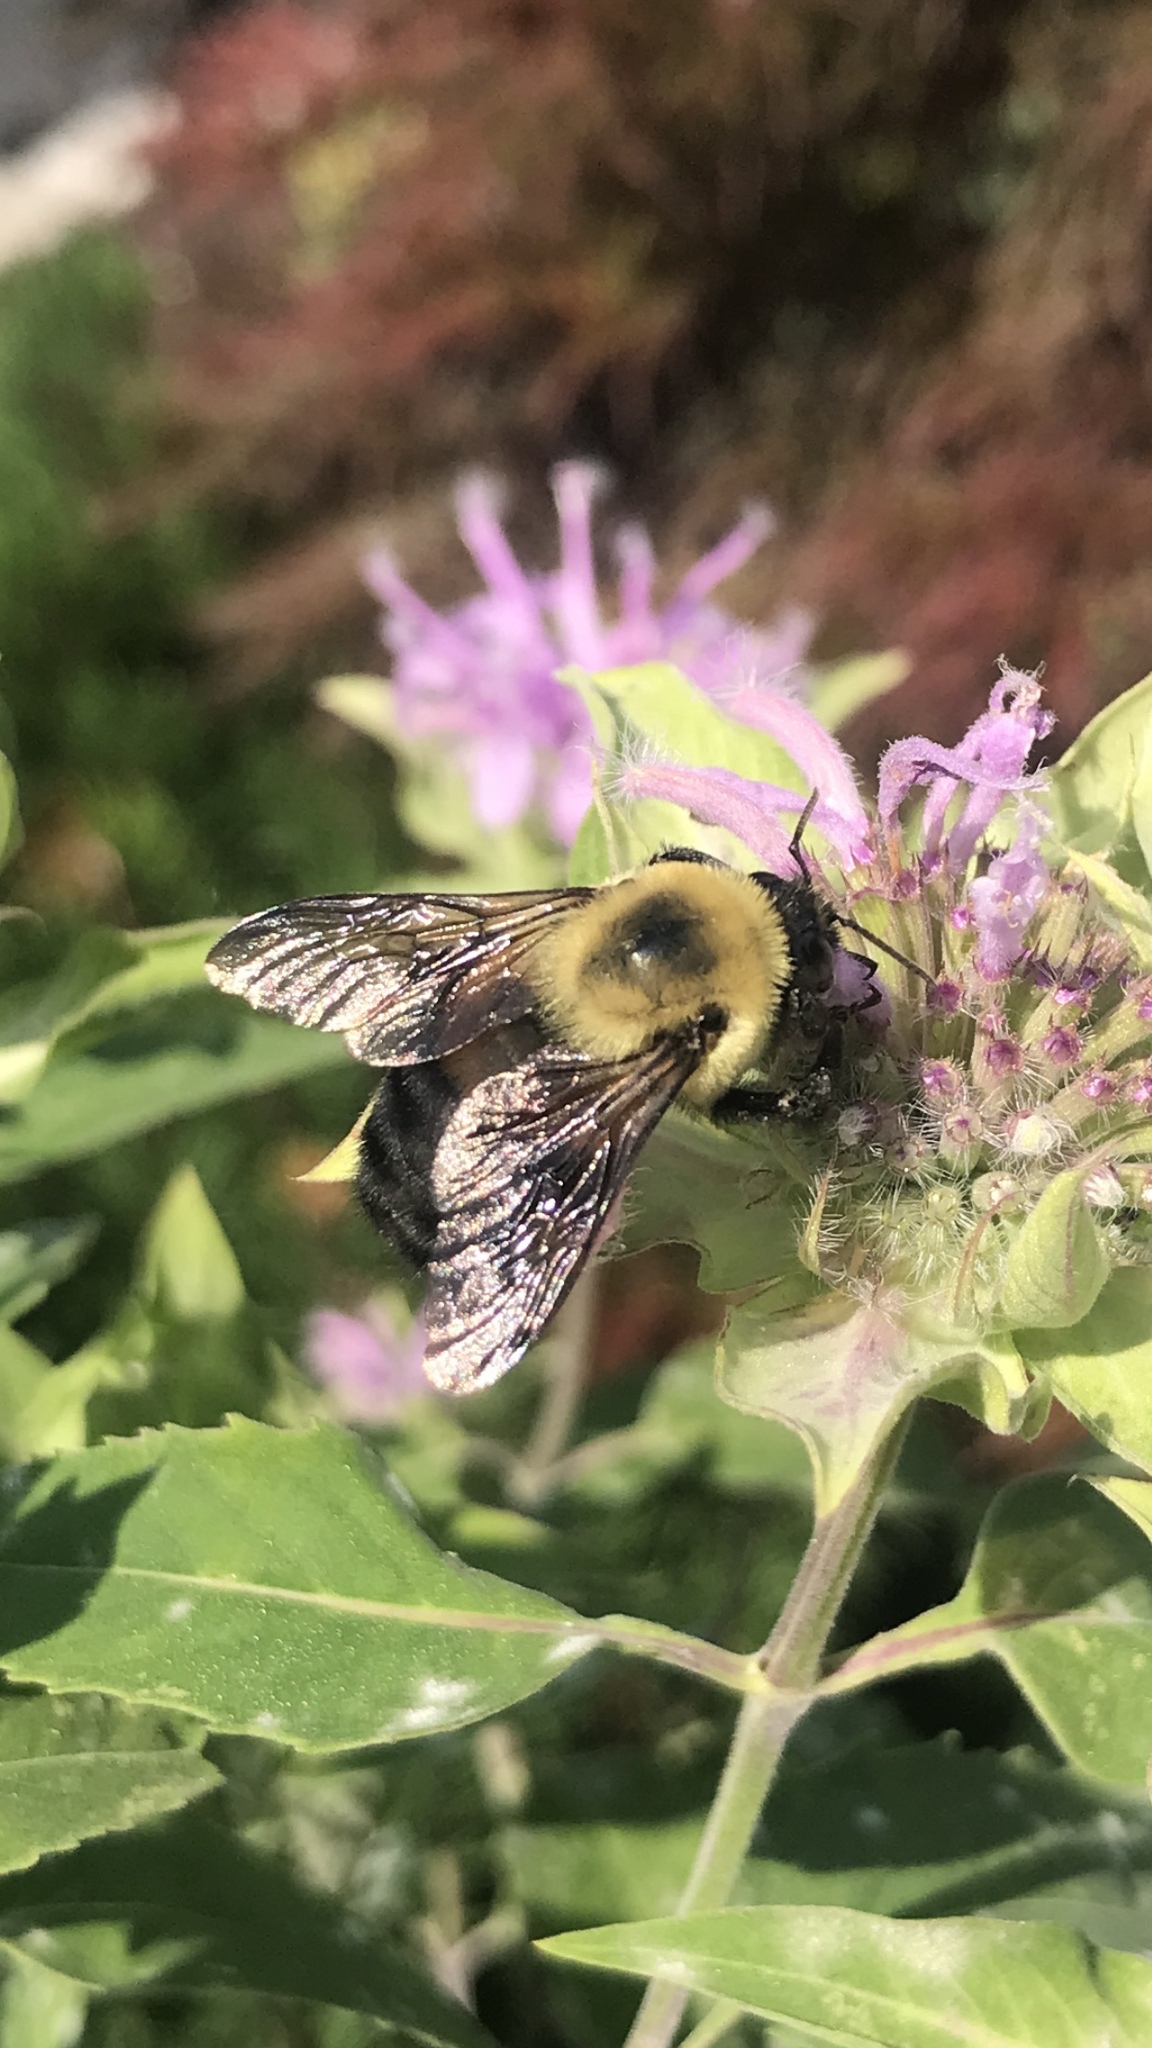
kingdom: Animalia
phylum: Arthropoda
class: Insecta
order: Hymenoptera
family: Apidae
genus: Bombus
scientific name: Bombus griseocollis
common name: Brown-belted bumble bee
